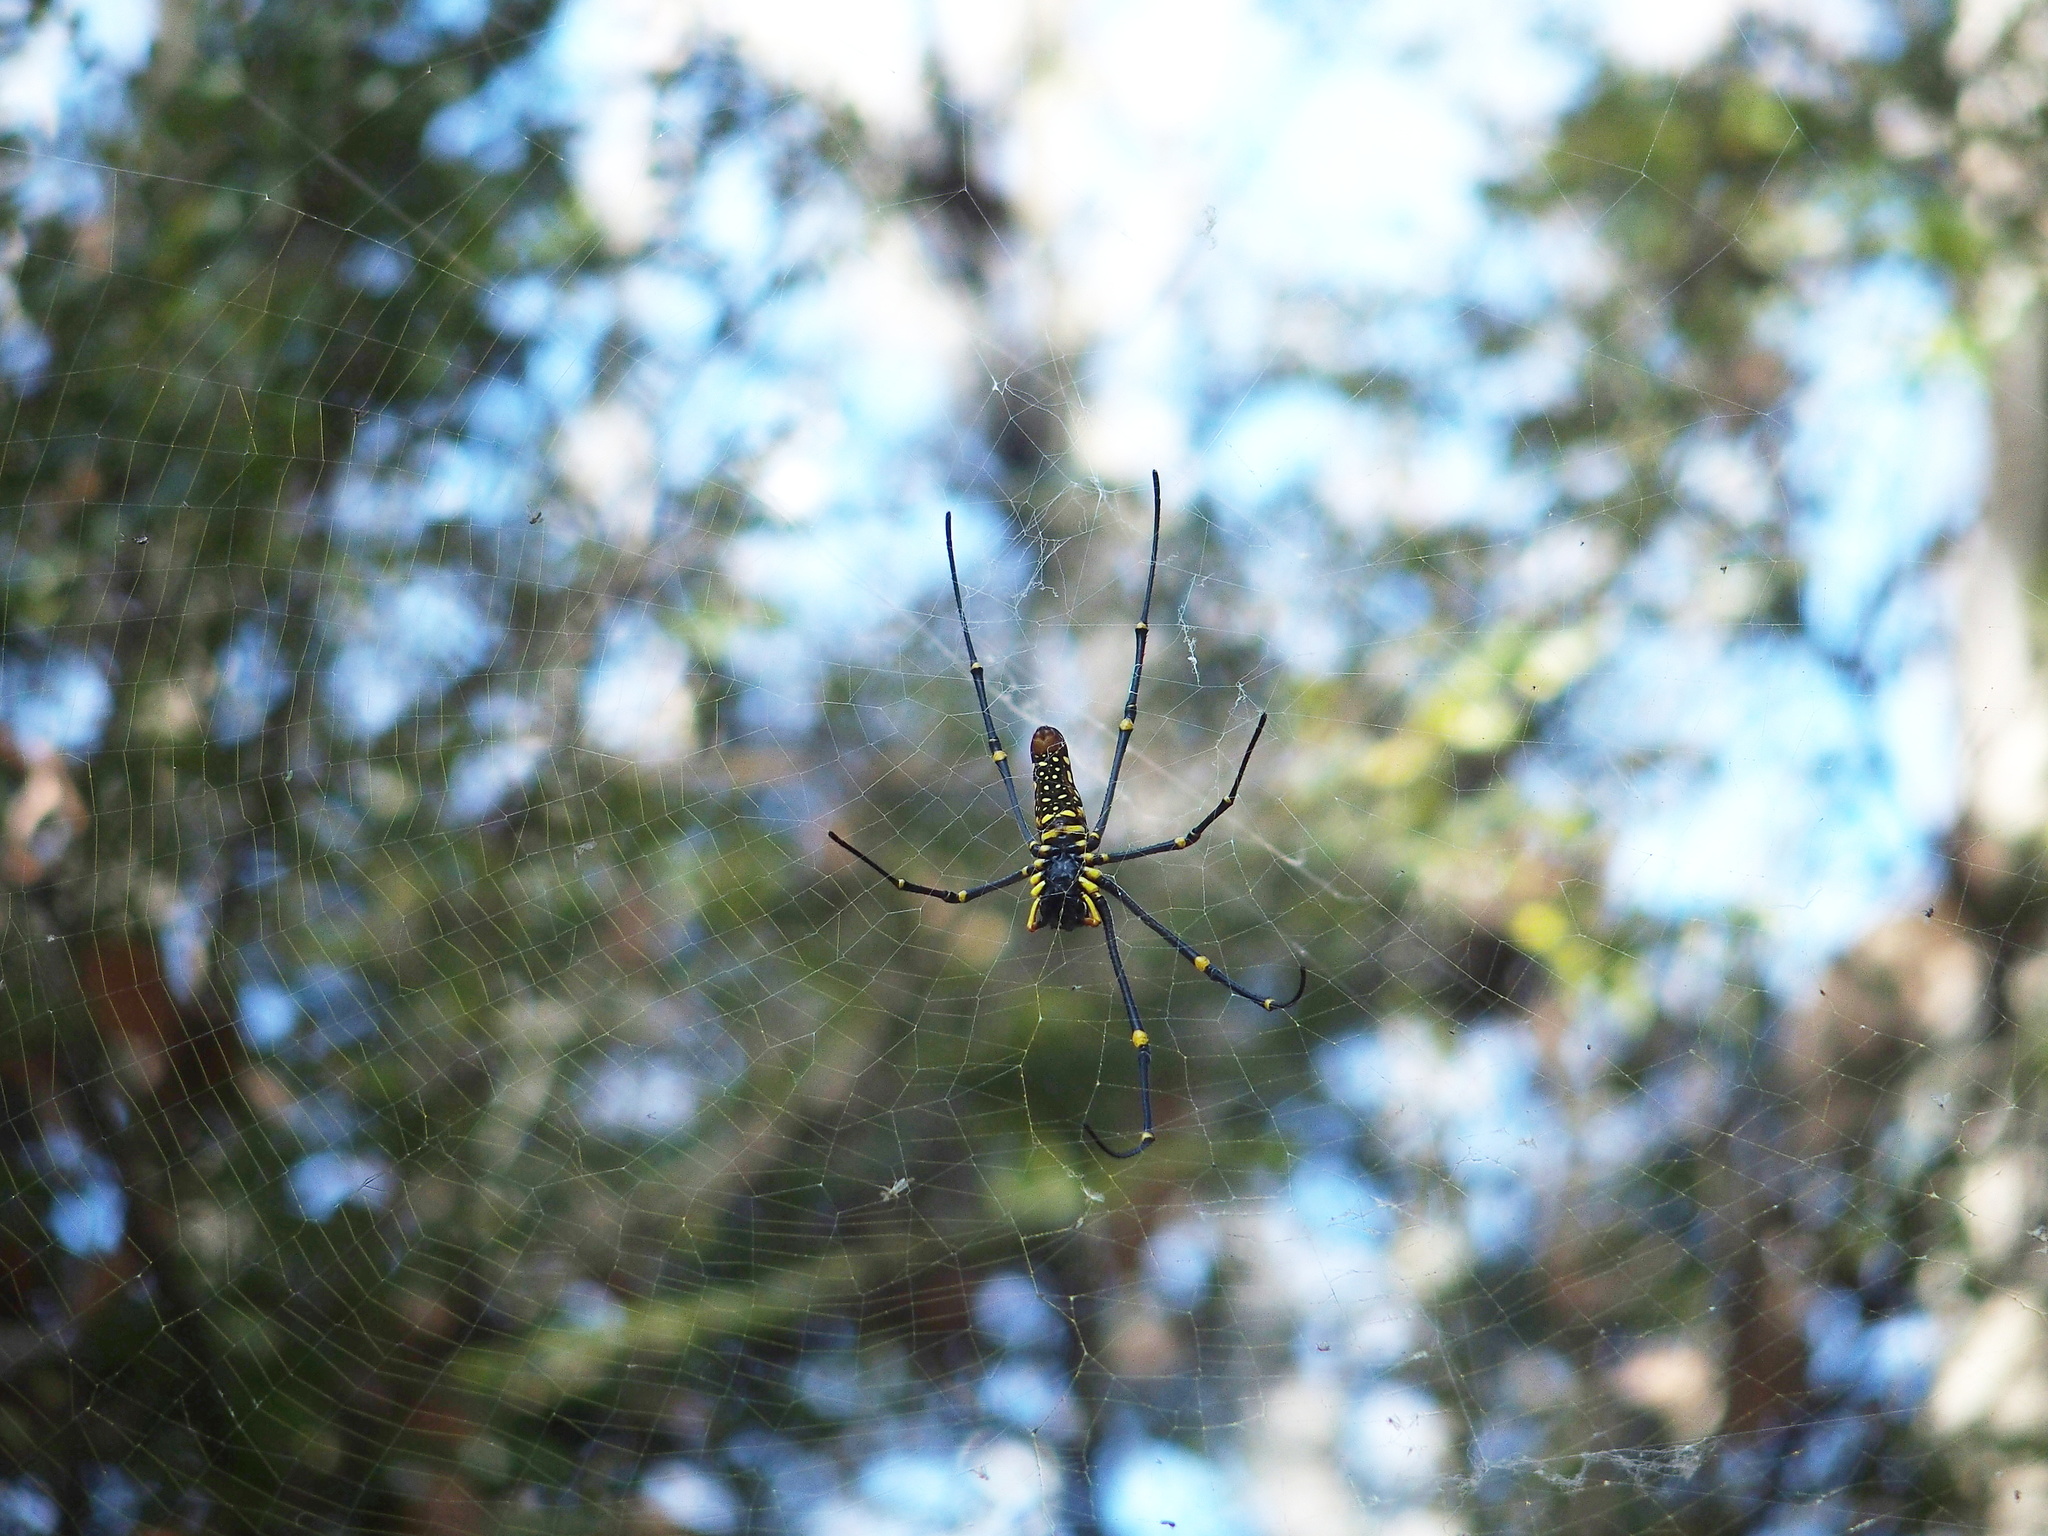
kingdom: Animalia
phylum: Arthropoda
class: Arachnida
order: Araneae
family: Araneidae
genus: Nephila
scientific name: Nephila pilipes
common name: Giant golden orb weaver
